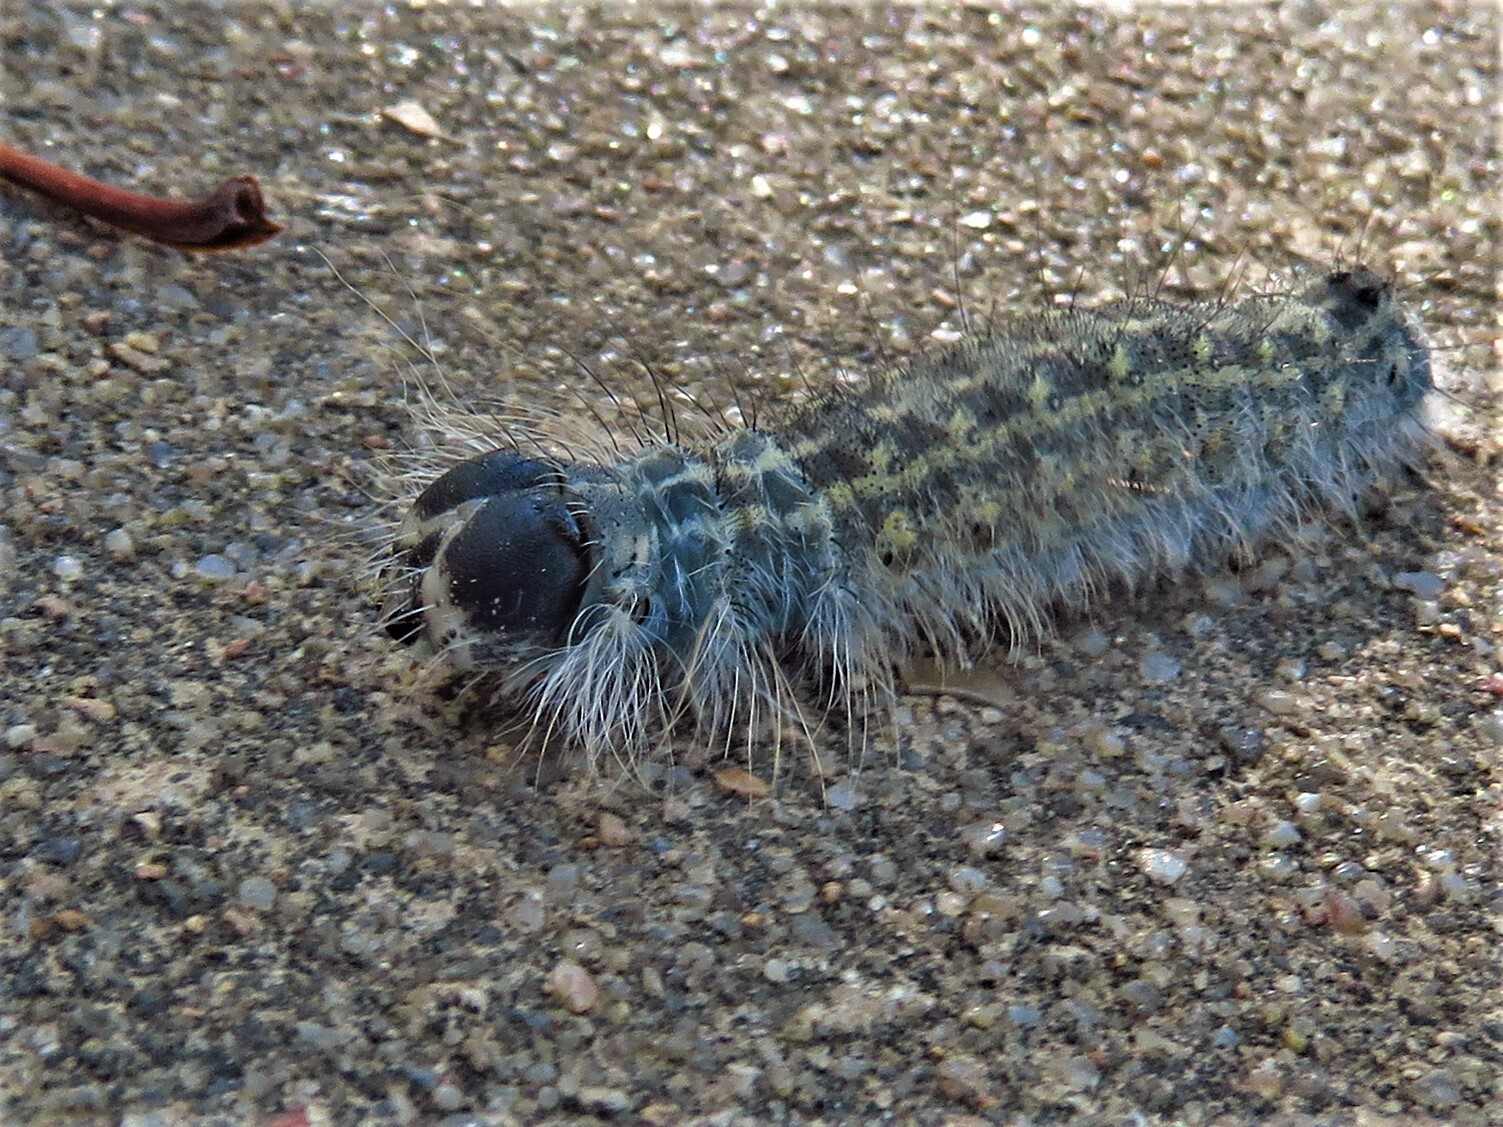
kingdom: Animalia
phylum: Arthropoda
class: Insecta
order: Lepidoptera
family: Noctuidae
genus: Acronicta
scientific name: Acronicta lobeliae
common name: Greater oak dagger
